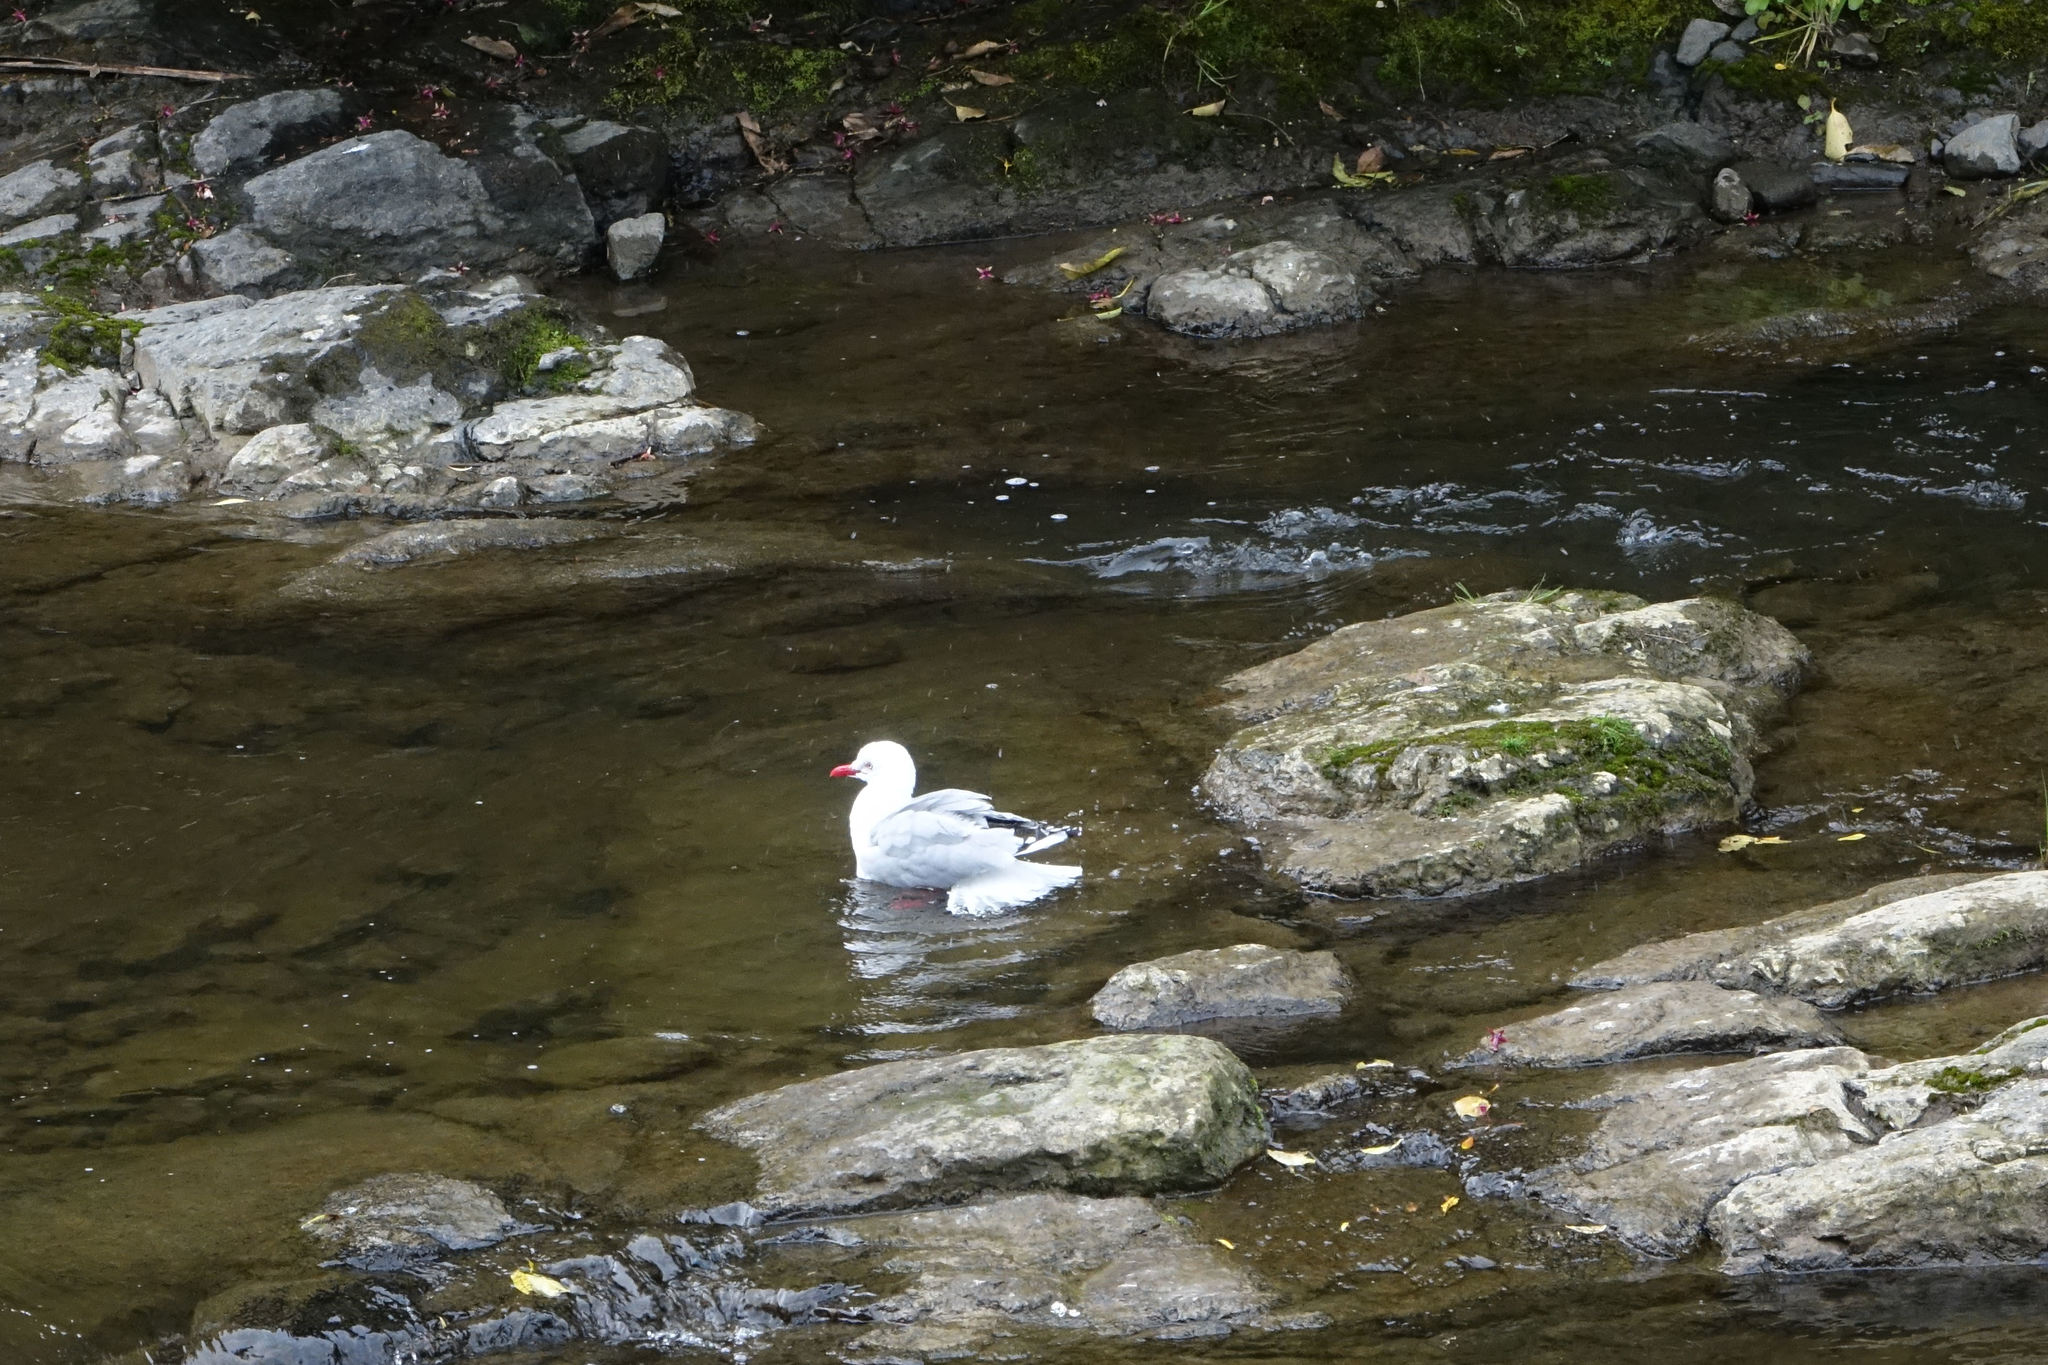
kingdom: Animalia
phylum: Chordata
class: Aves
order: Charadriiformes
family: Laridae
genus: Chroicocephalus
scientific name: Chroicocephalus novaehollandiae
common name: Silver gull
